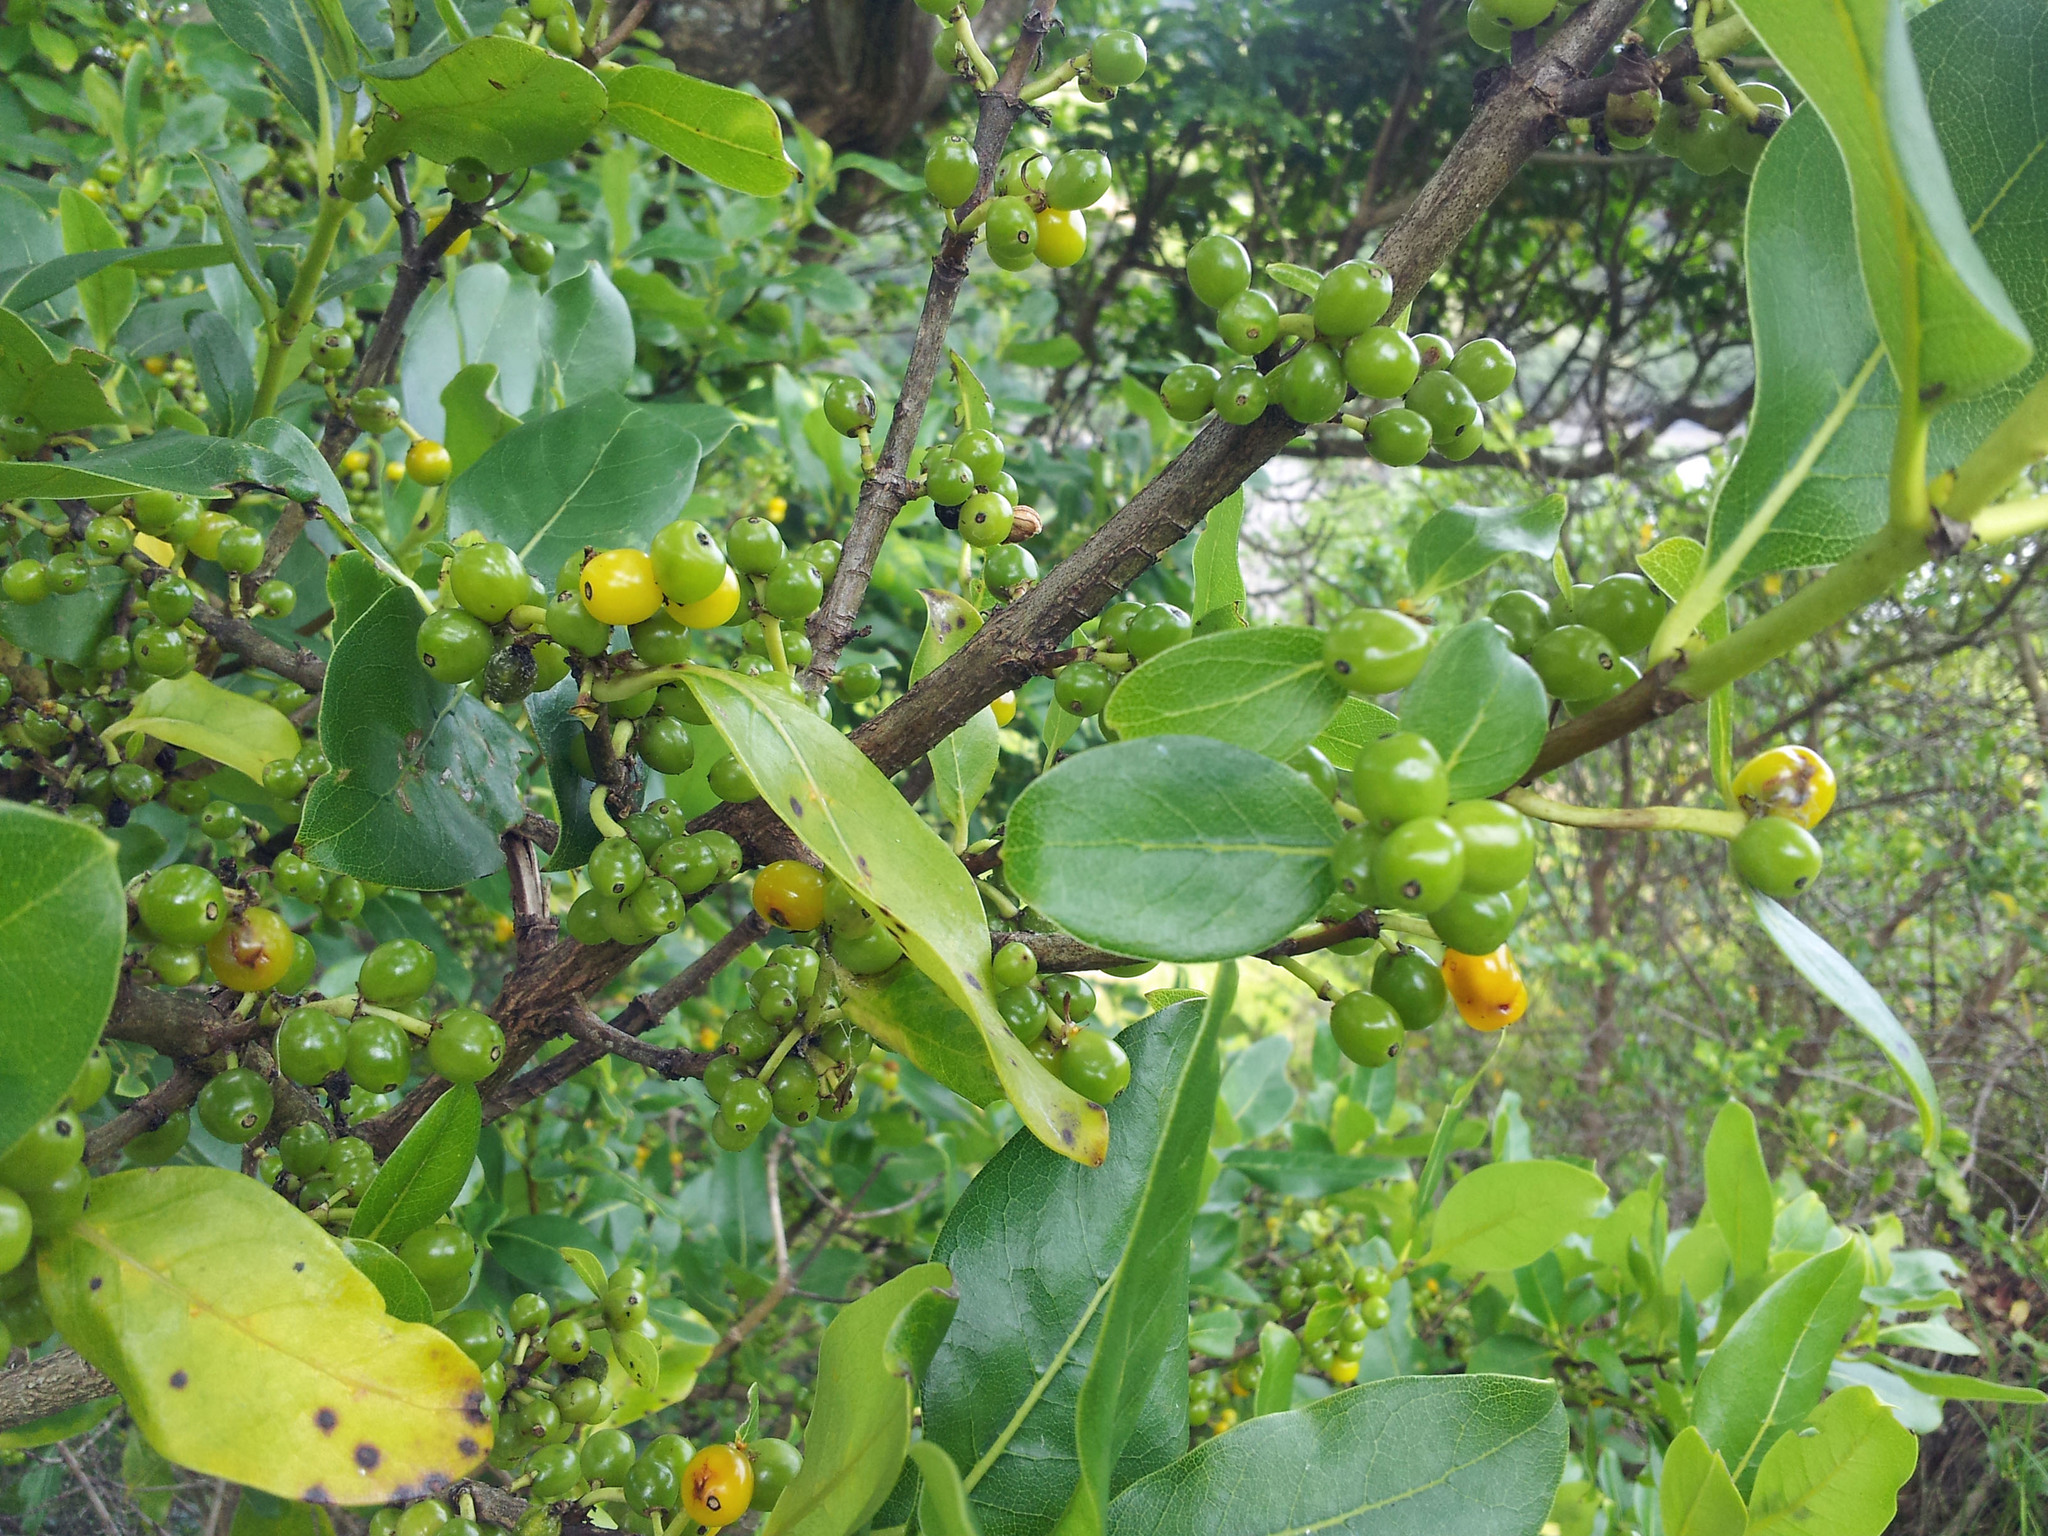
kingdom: Plantae
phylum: Tracheophyta
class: Magnoliopsida
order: Gentianales
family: Rubiaceae
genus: Coprosma
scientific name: Coprosma macrocarpa
